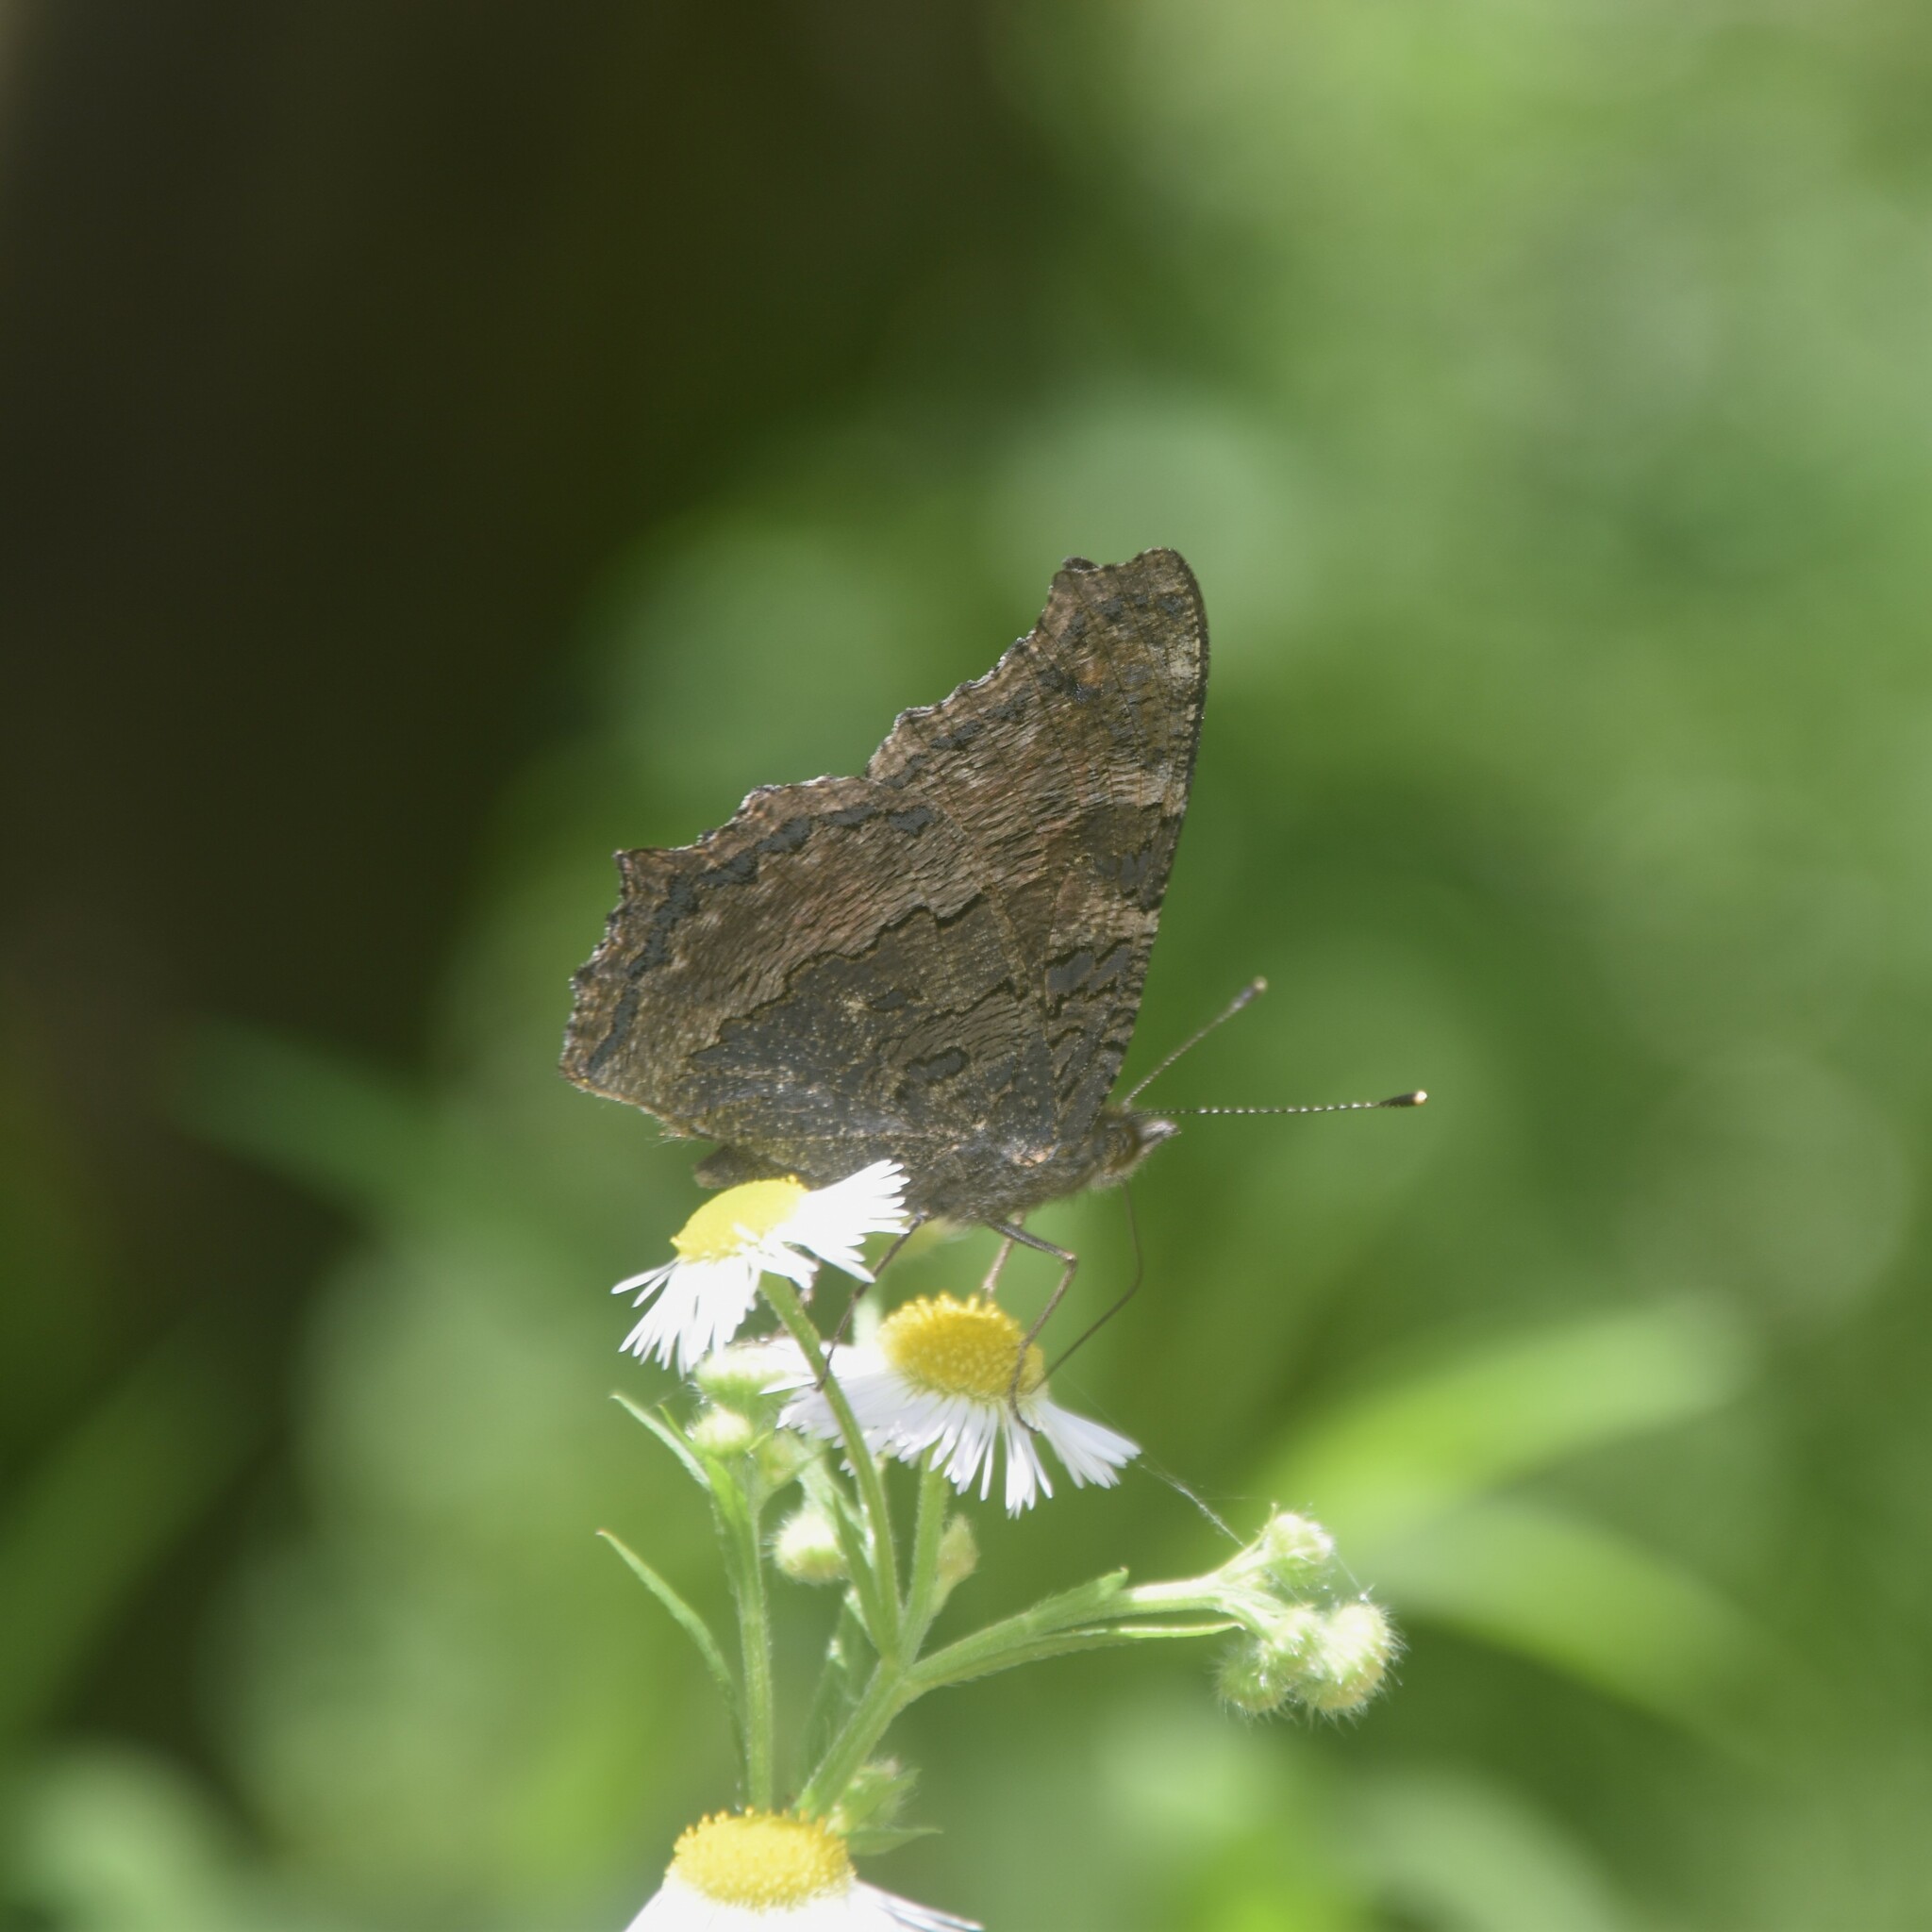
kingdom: Animalia
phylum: Arthropoda
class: Insecta
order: Lepidoptera
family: Nymphalidae
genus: Aglais
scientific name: Aglais caschmirensis
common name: Indian tortoiseshell
